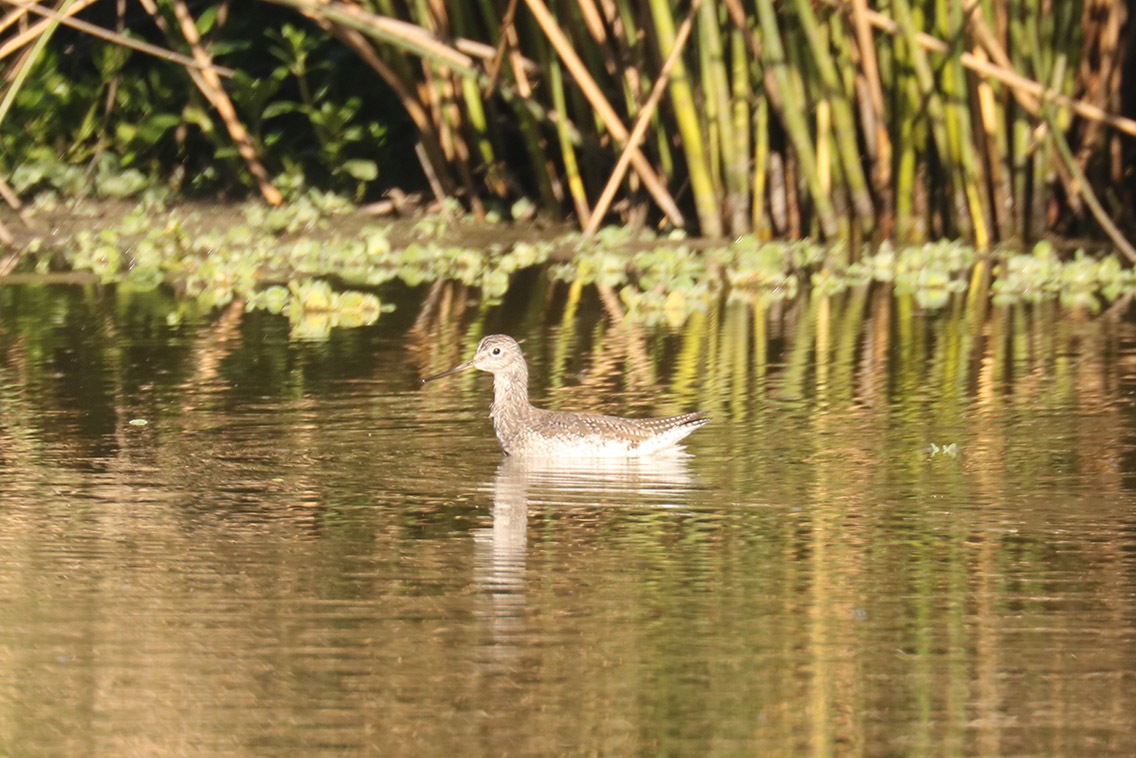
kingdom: Animalia
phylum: Chordata
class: Aves
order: Charadriiformes
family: Scolopacidae
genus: Tringa
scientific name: Tringa melanoleuca
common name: Greater yellowlegs
